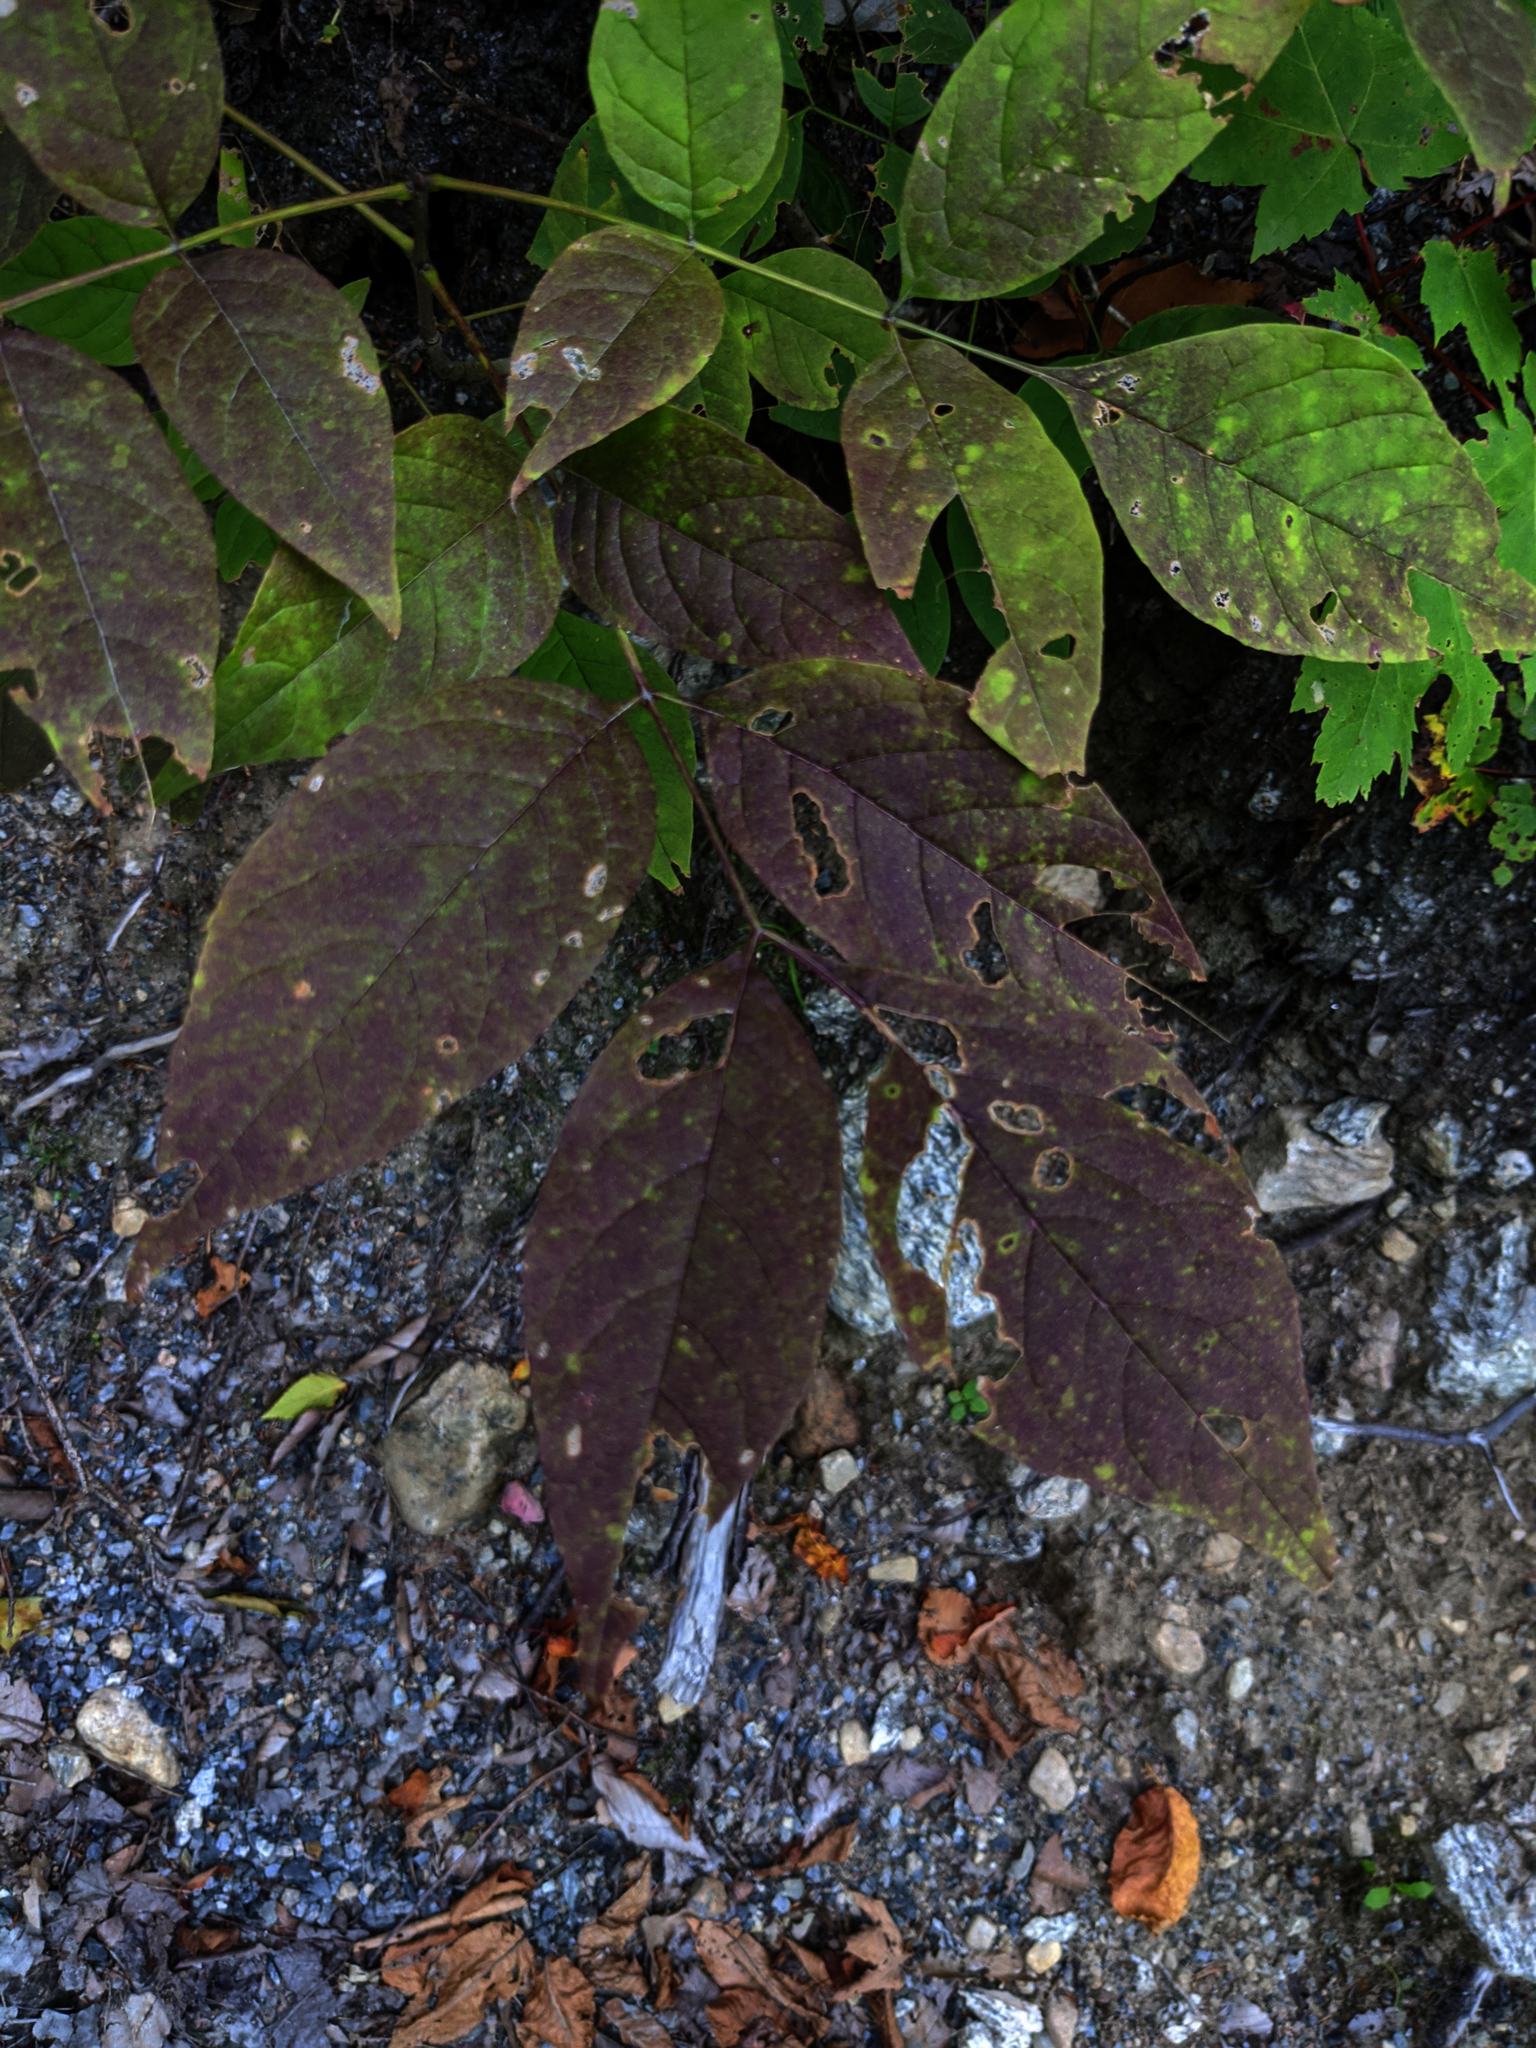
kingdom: Plantae
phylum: Tracheophyta
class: Magnoliopsida
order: Lamiales
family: Oleaceae
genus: Fraxinus
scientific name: Fraxinus americana
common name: White ash
